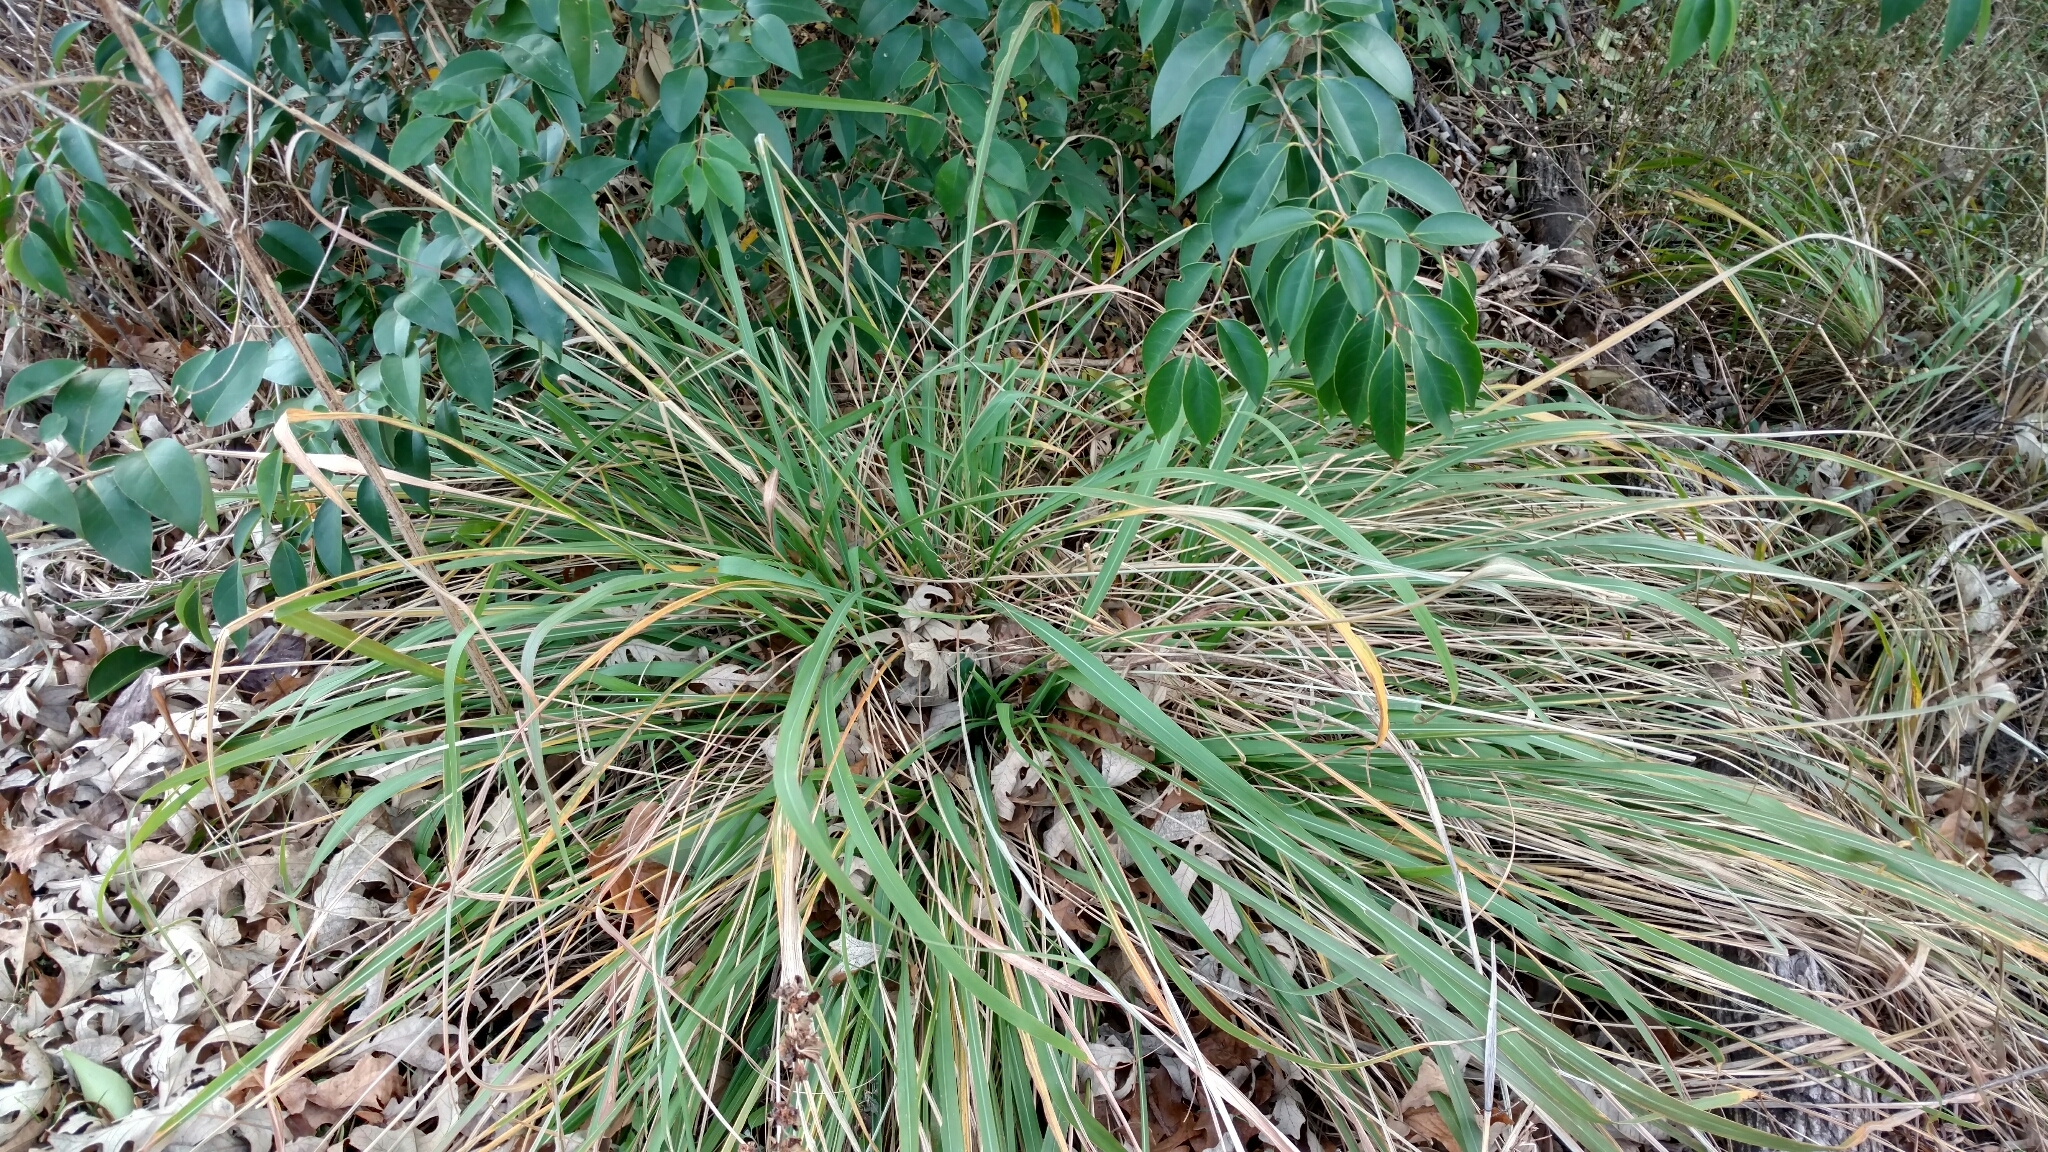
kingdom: Plantae
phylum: Tracheophyta
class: Liliopsida
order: Poales
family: Poaceae
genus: Tripsacum
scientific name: Tripsacum dactyloides
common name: Buffalo-grass
